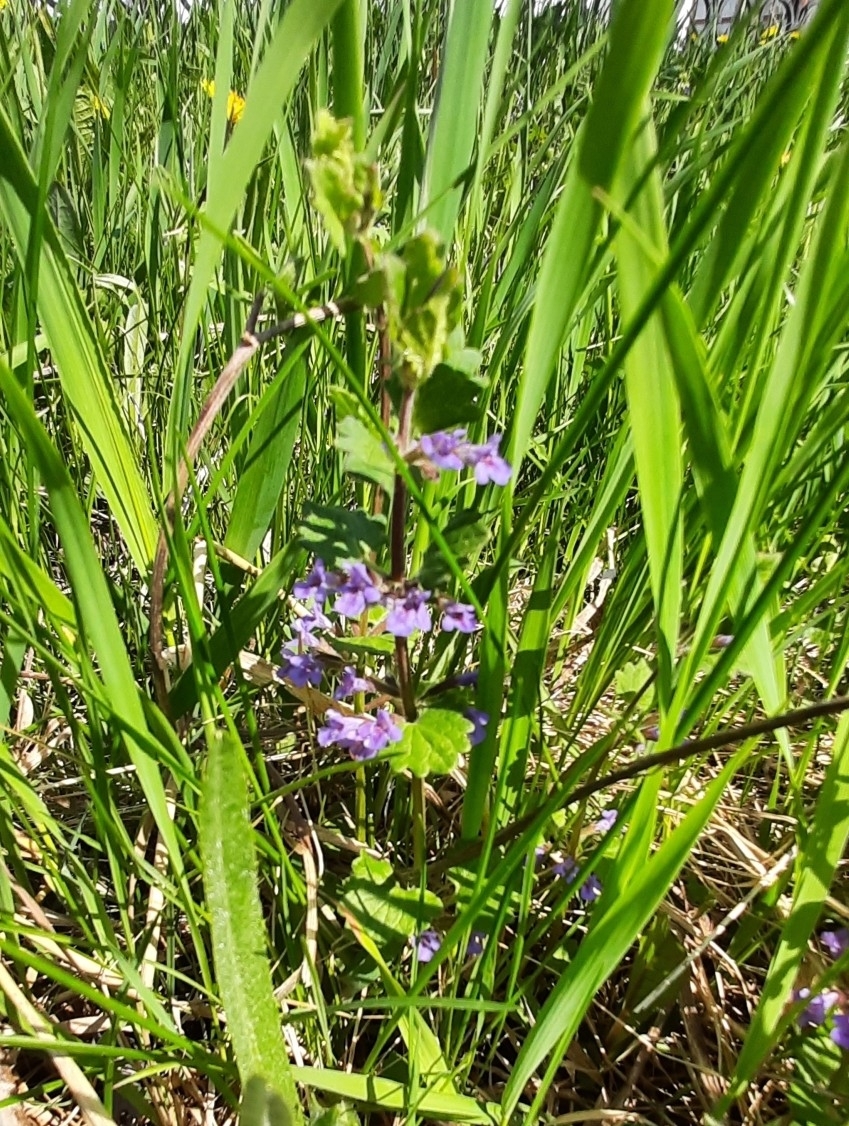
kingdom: Plantae
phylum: Tracheophyta
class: Magnoliopsida
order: Lamiales
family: Lamiaceae
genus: Glechoma
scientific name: Glechoma hederacea
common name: Ground ivy
